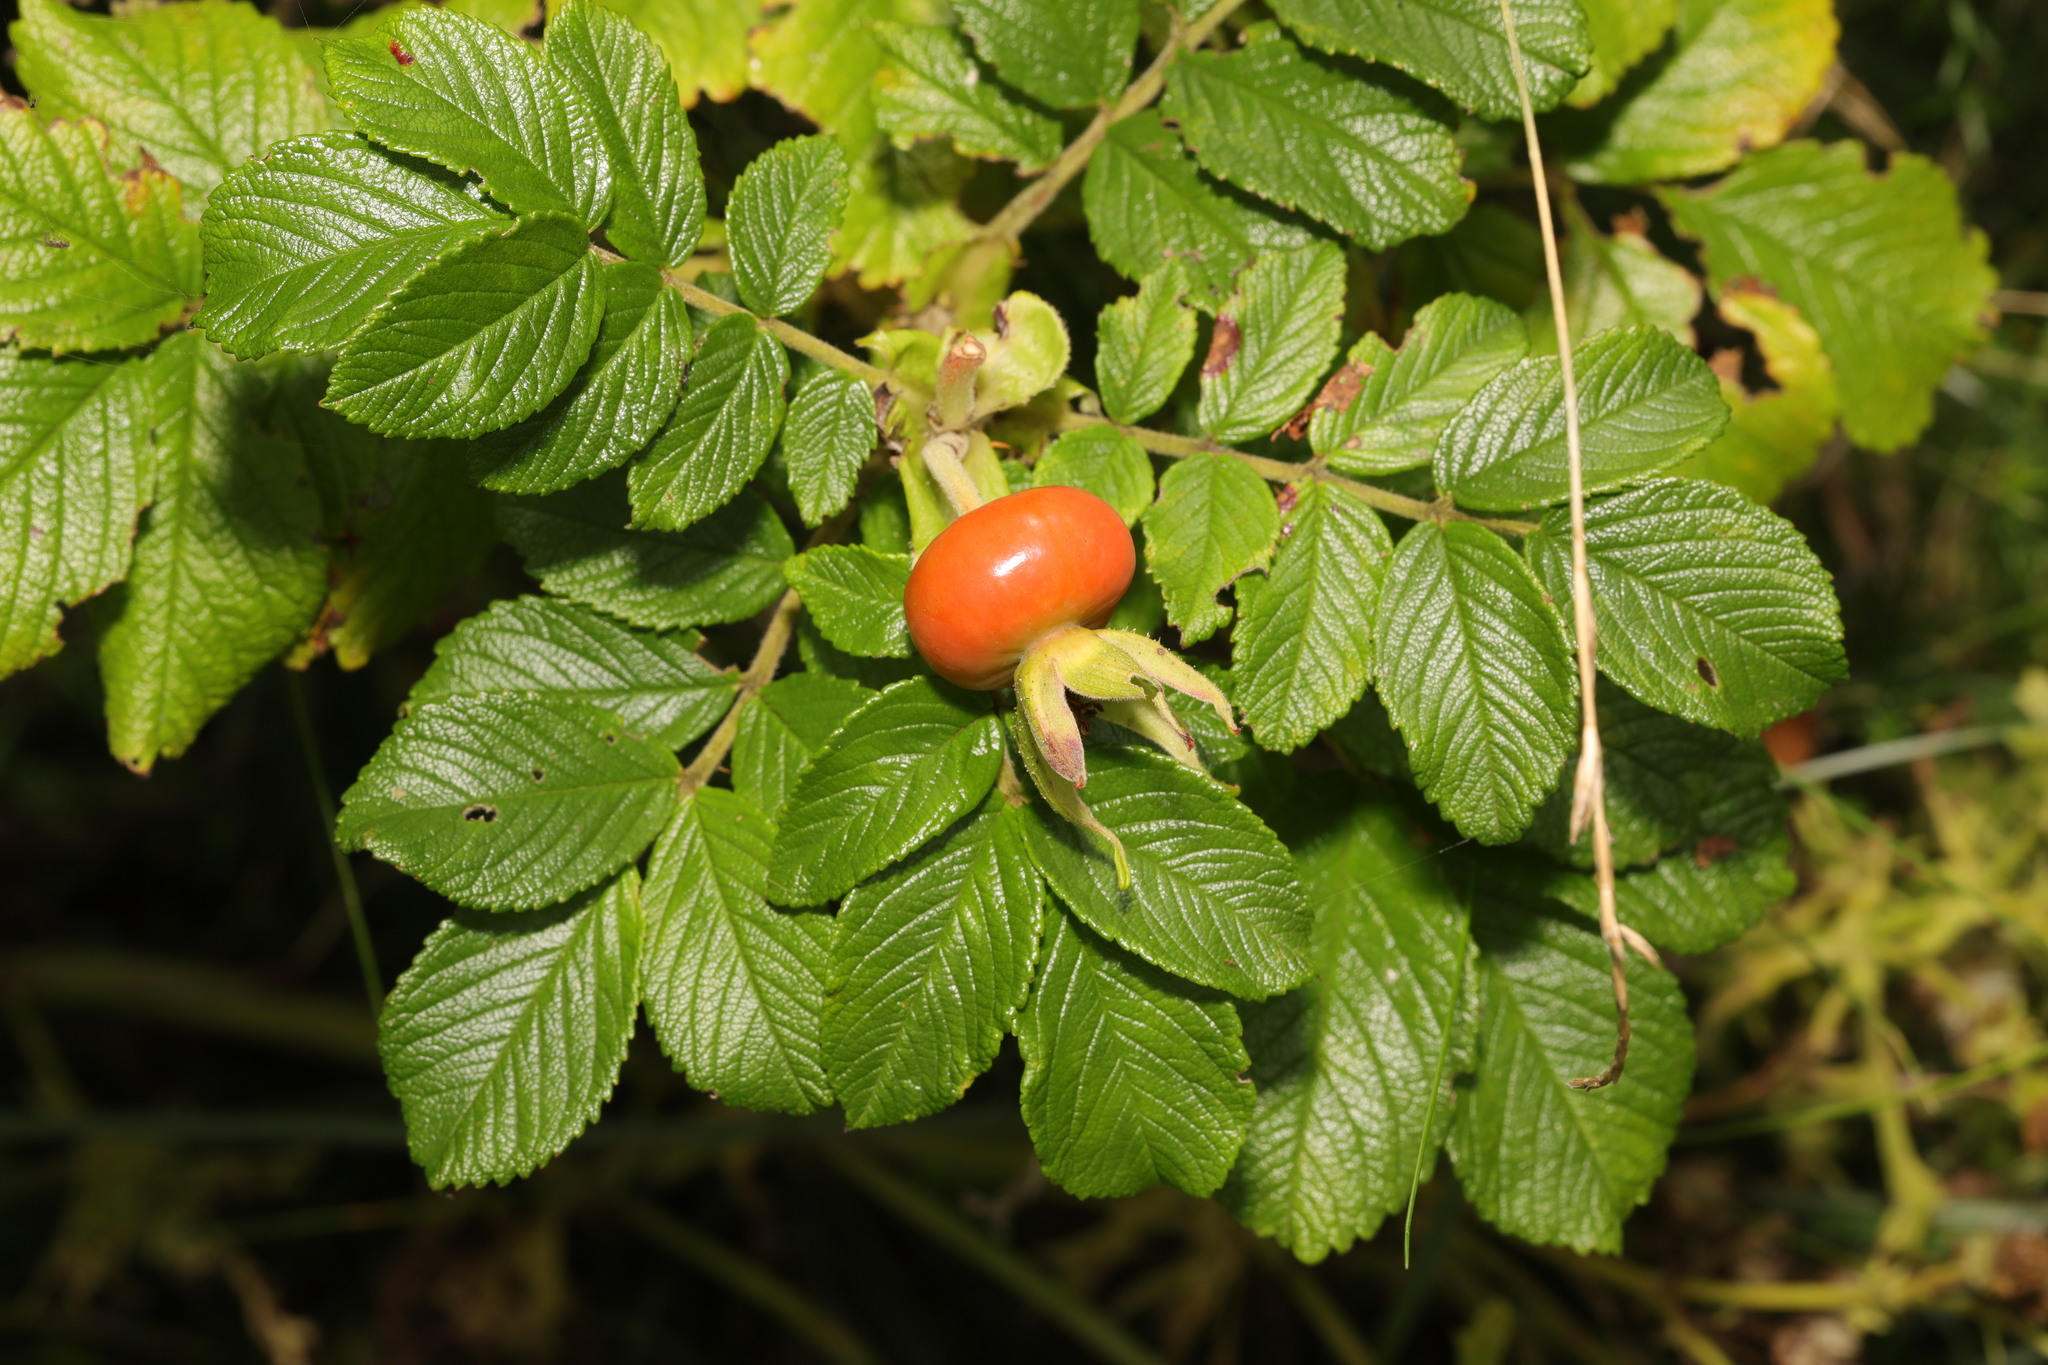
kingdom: Plantae
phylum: Tracheophyta
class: Magnoliopsida
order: Rosales
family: Rosaceae
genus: Rosa
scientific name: Rosa rugosa
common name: Japanese rose
